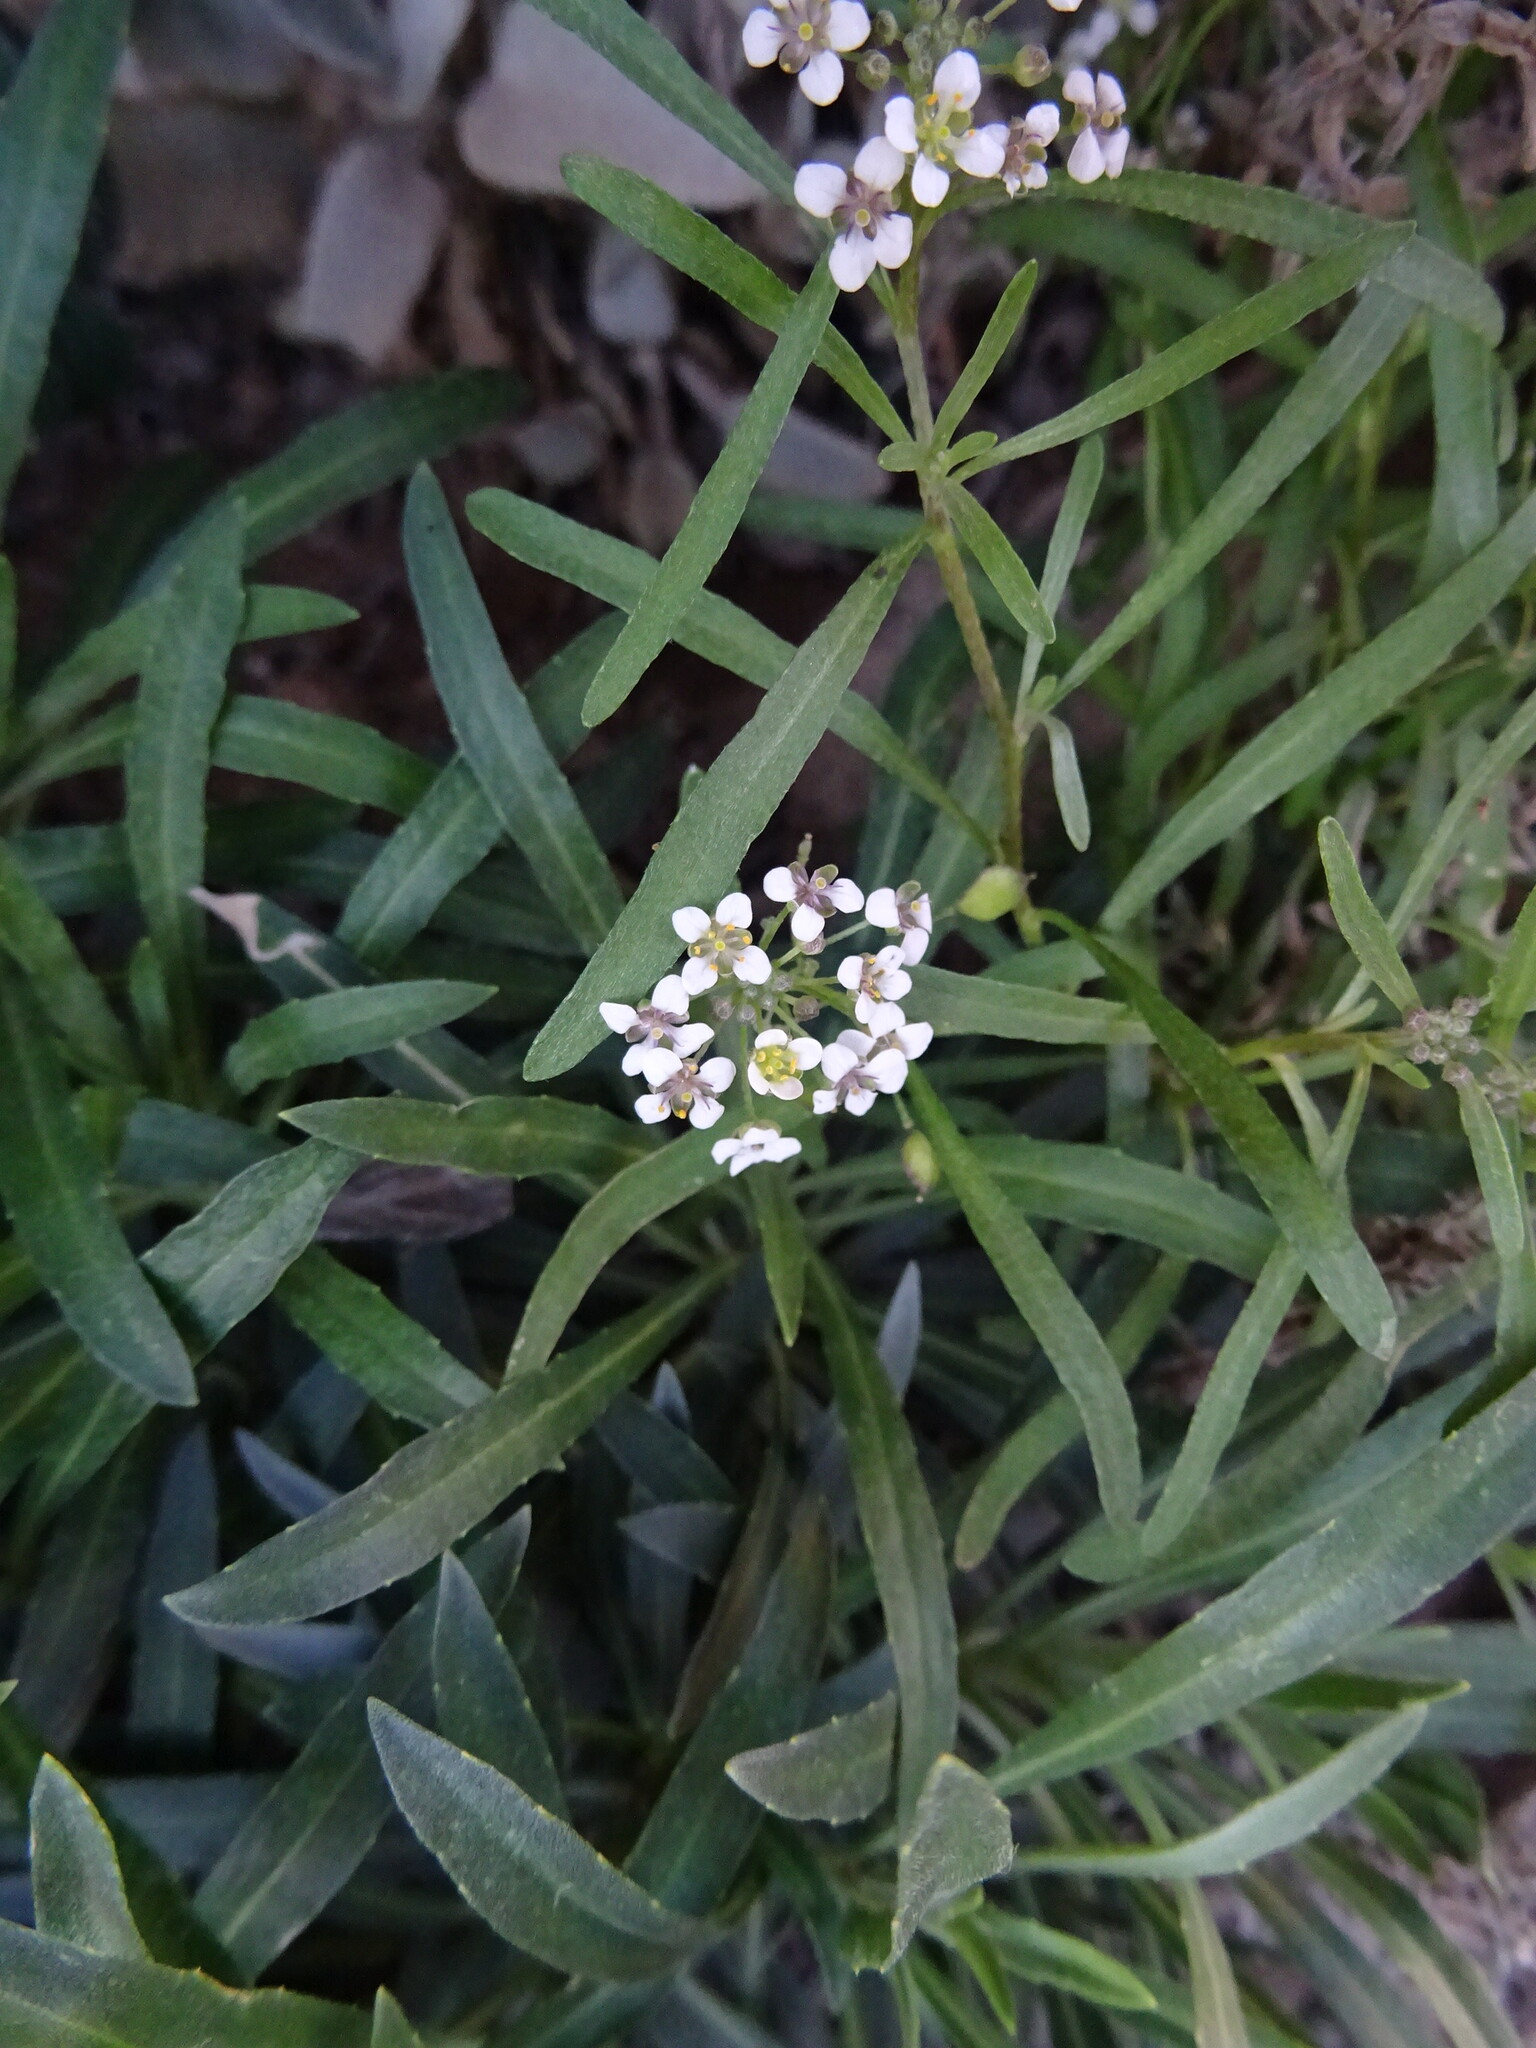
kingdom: Plantae
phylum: Tracheophyta
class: Magnoliopsida
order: Brassicales
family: Brassicaceae
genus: Lobularia
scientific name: Lobularia canariensis
